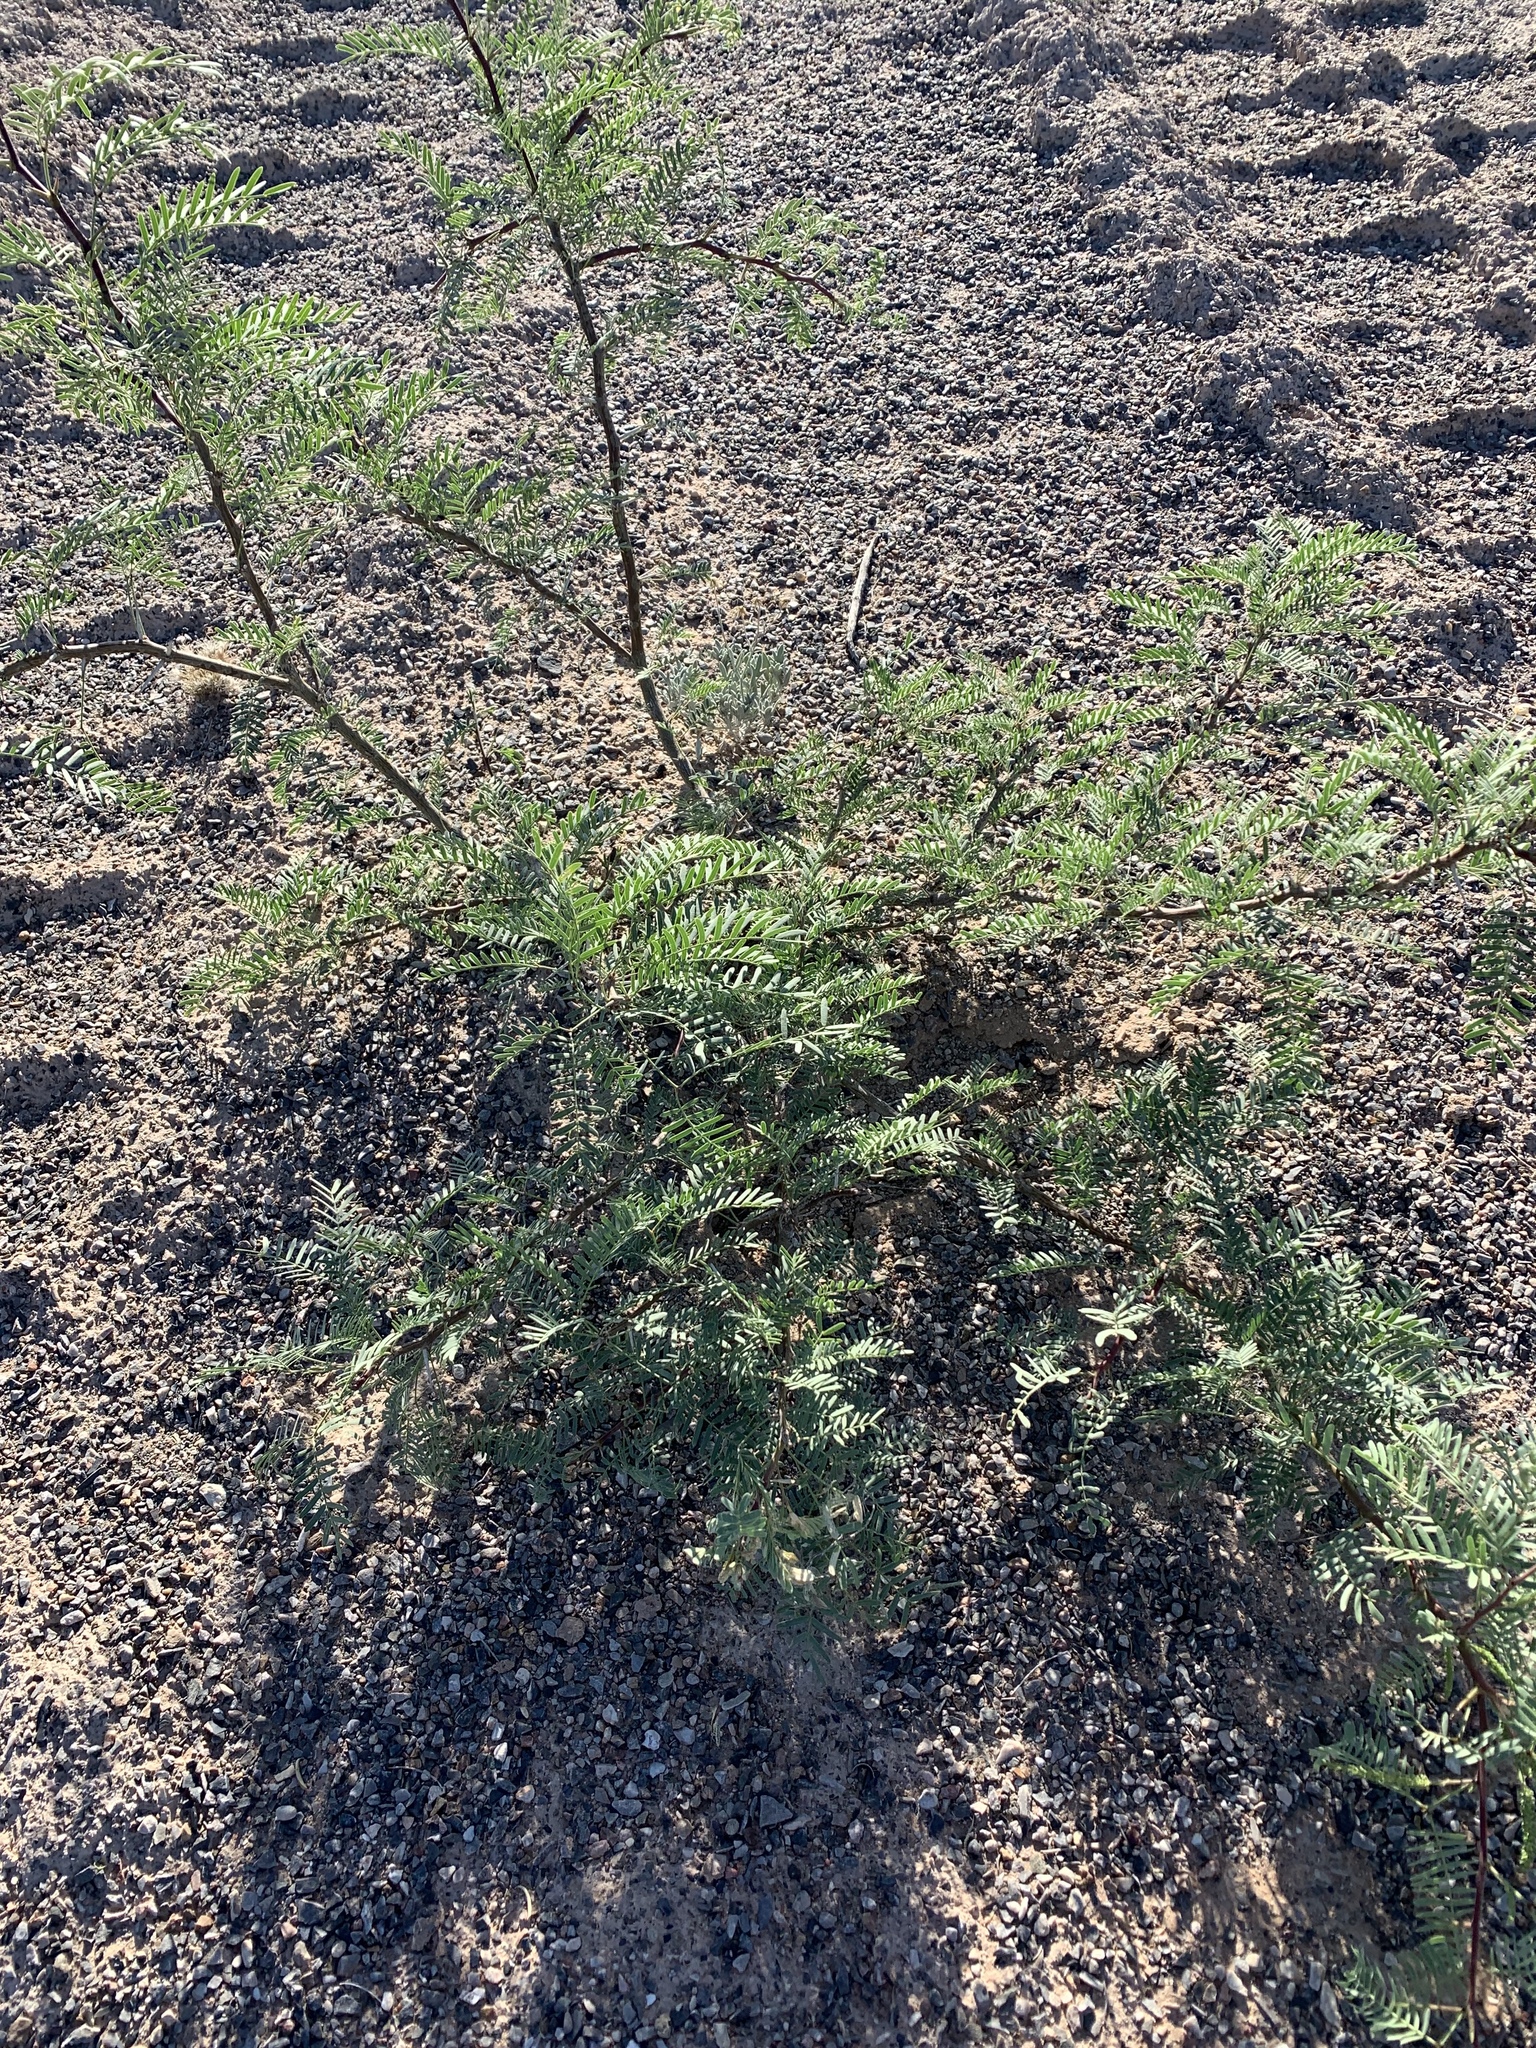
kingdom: Plantae
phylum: Tracheophyta
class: Magnoliopsida
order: Fabales
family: Fabaceae
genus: Prosopis
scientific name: Prosopis glandulosa
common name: Honey mesquite
